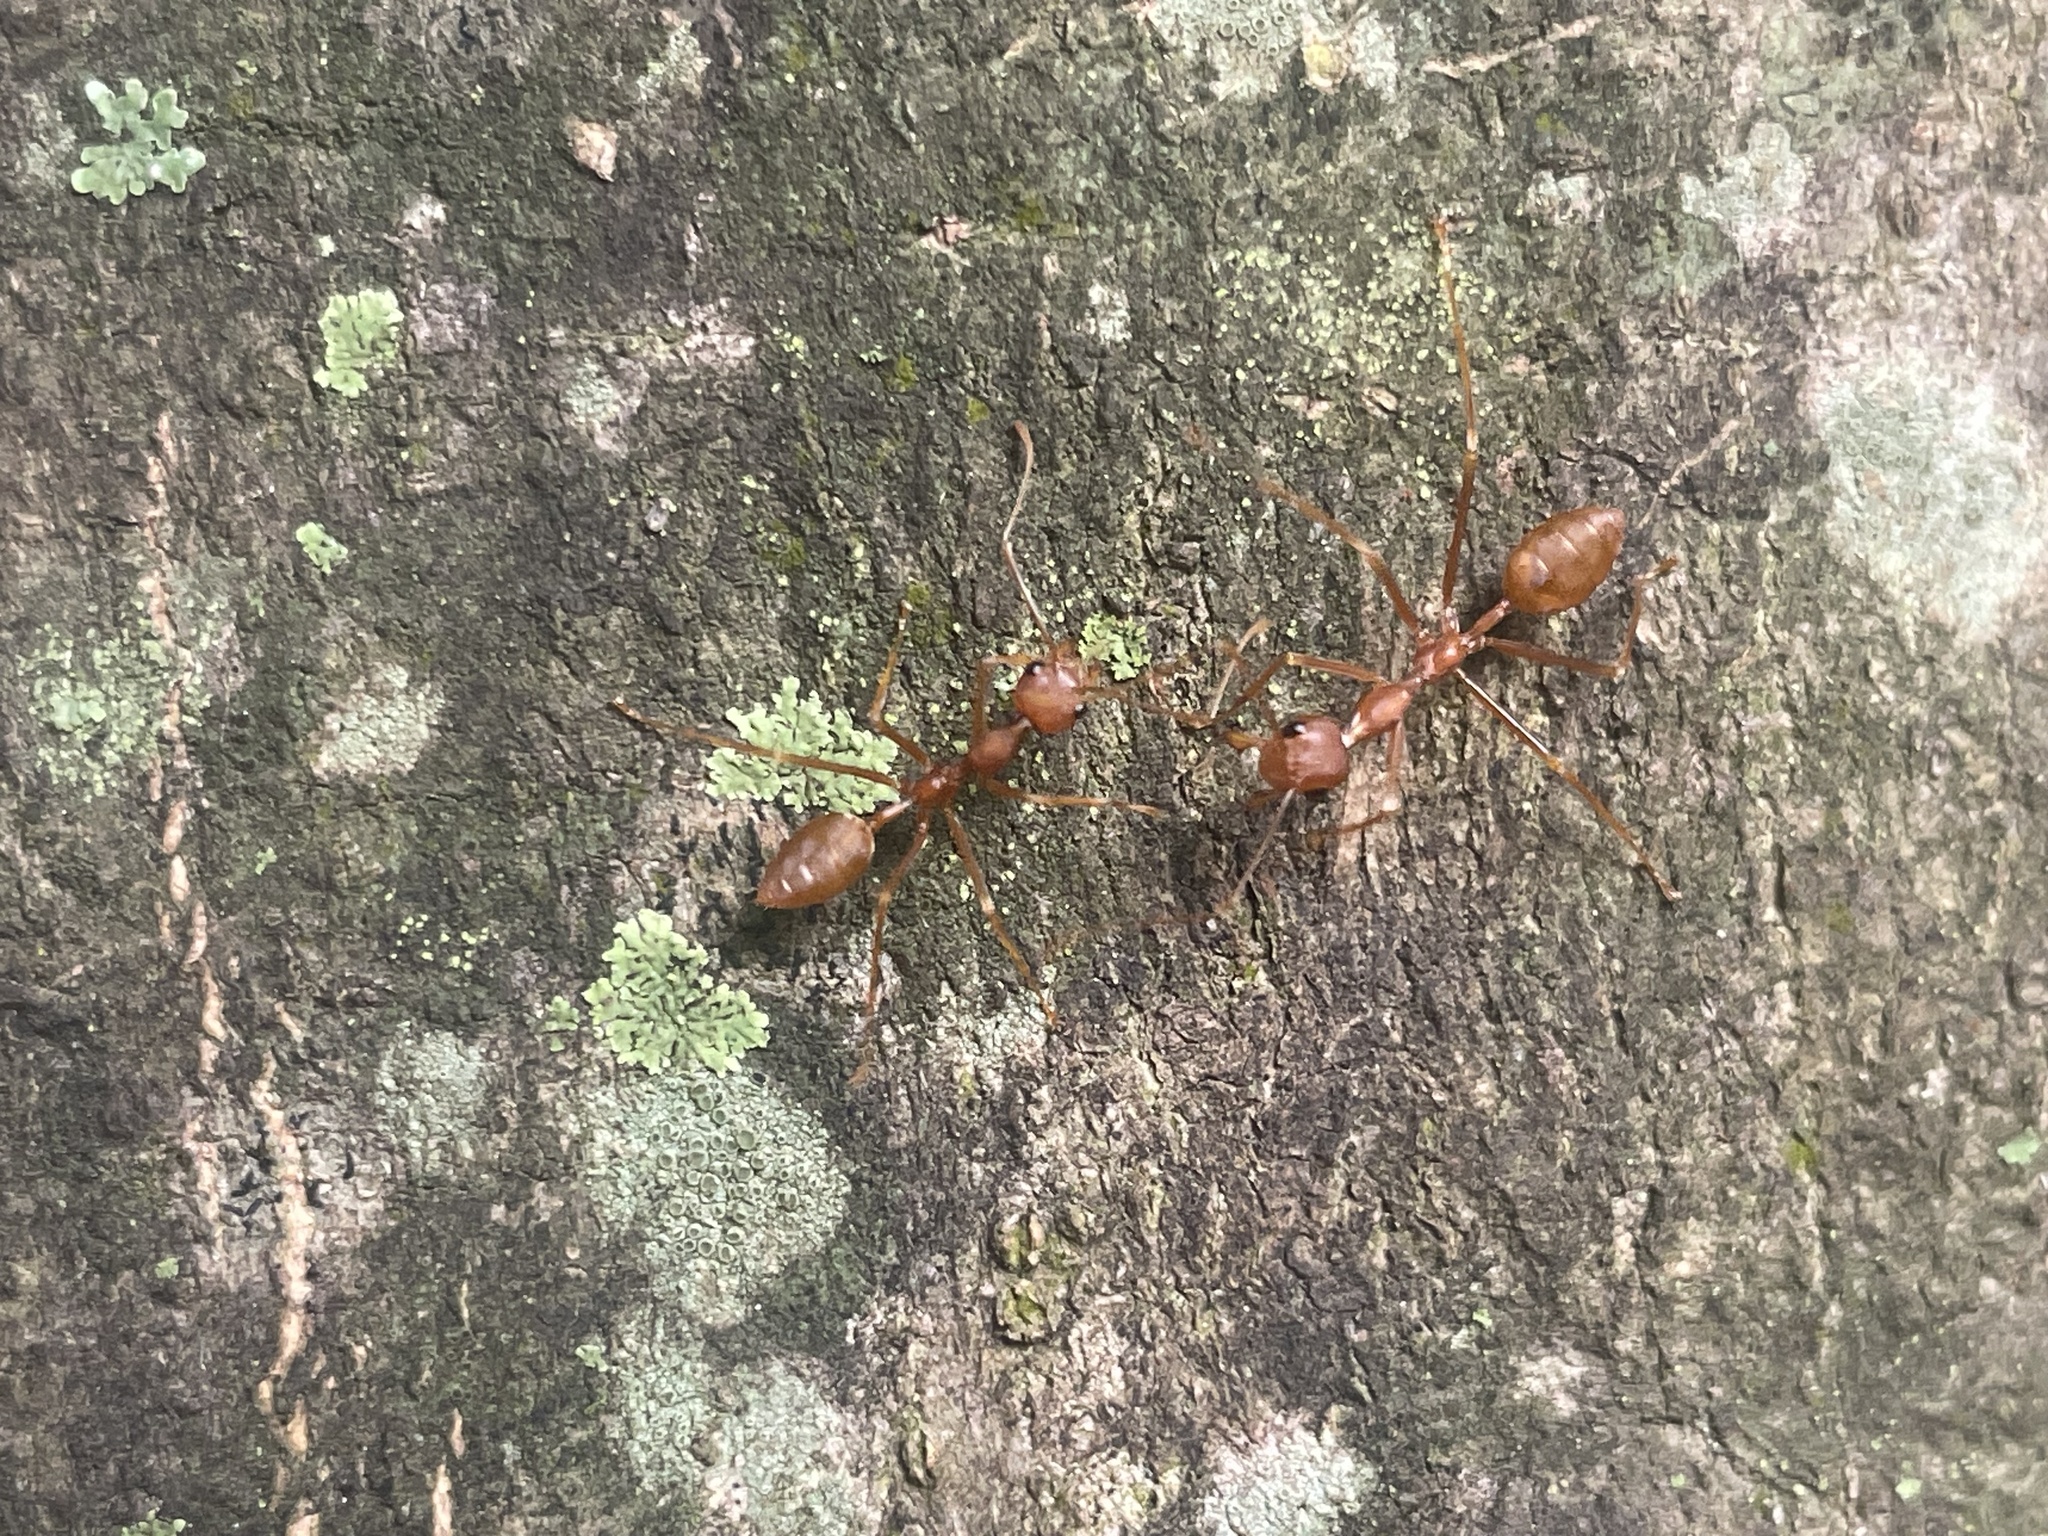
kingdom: Animalia
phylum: Arthropoda
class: Insecta
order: Hymenoptera
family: Formicidae
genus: Oecophylla
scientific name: Oecophylla smaragdina
